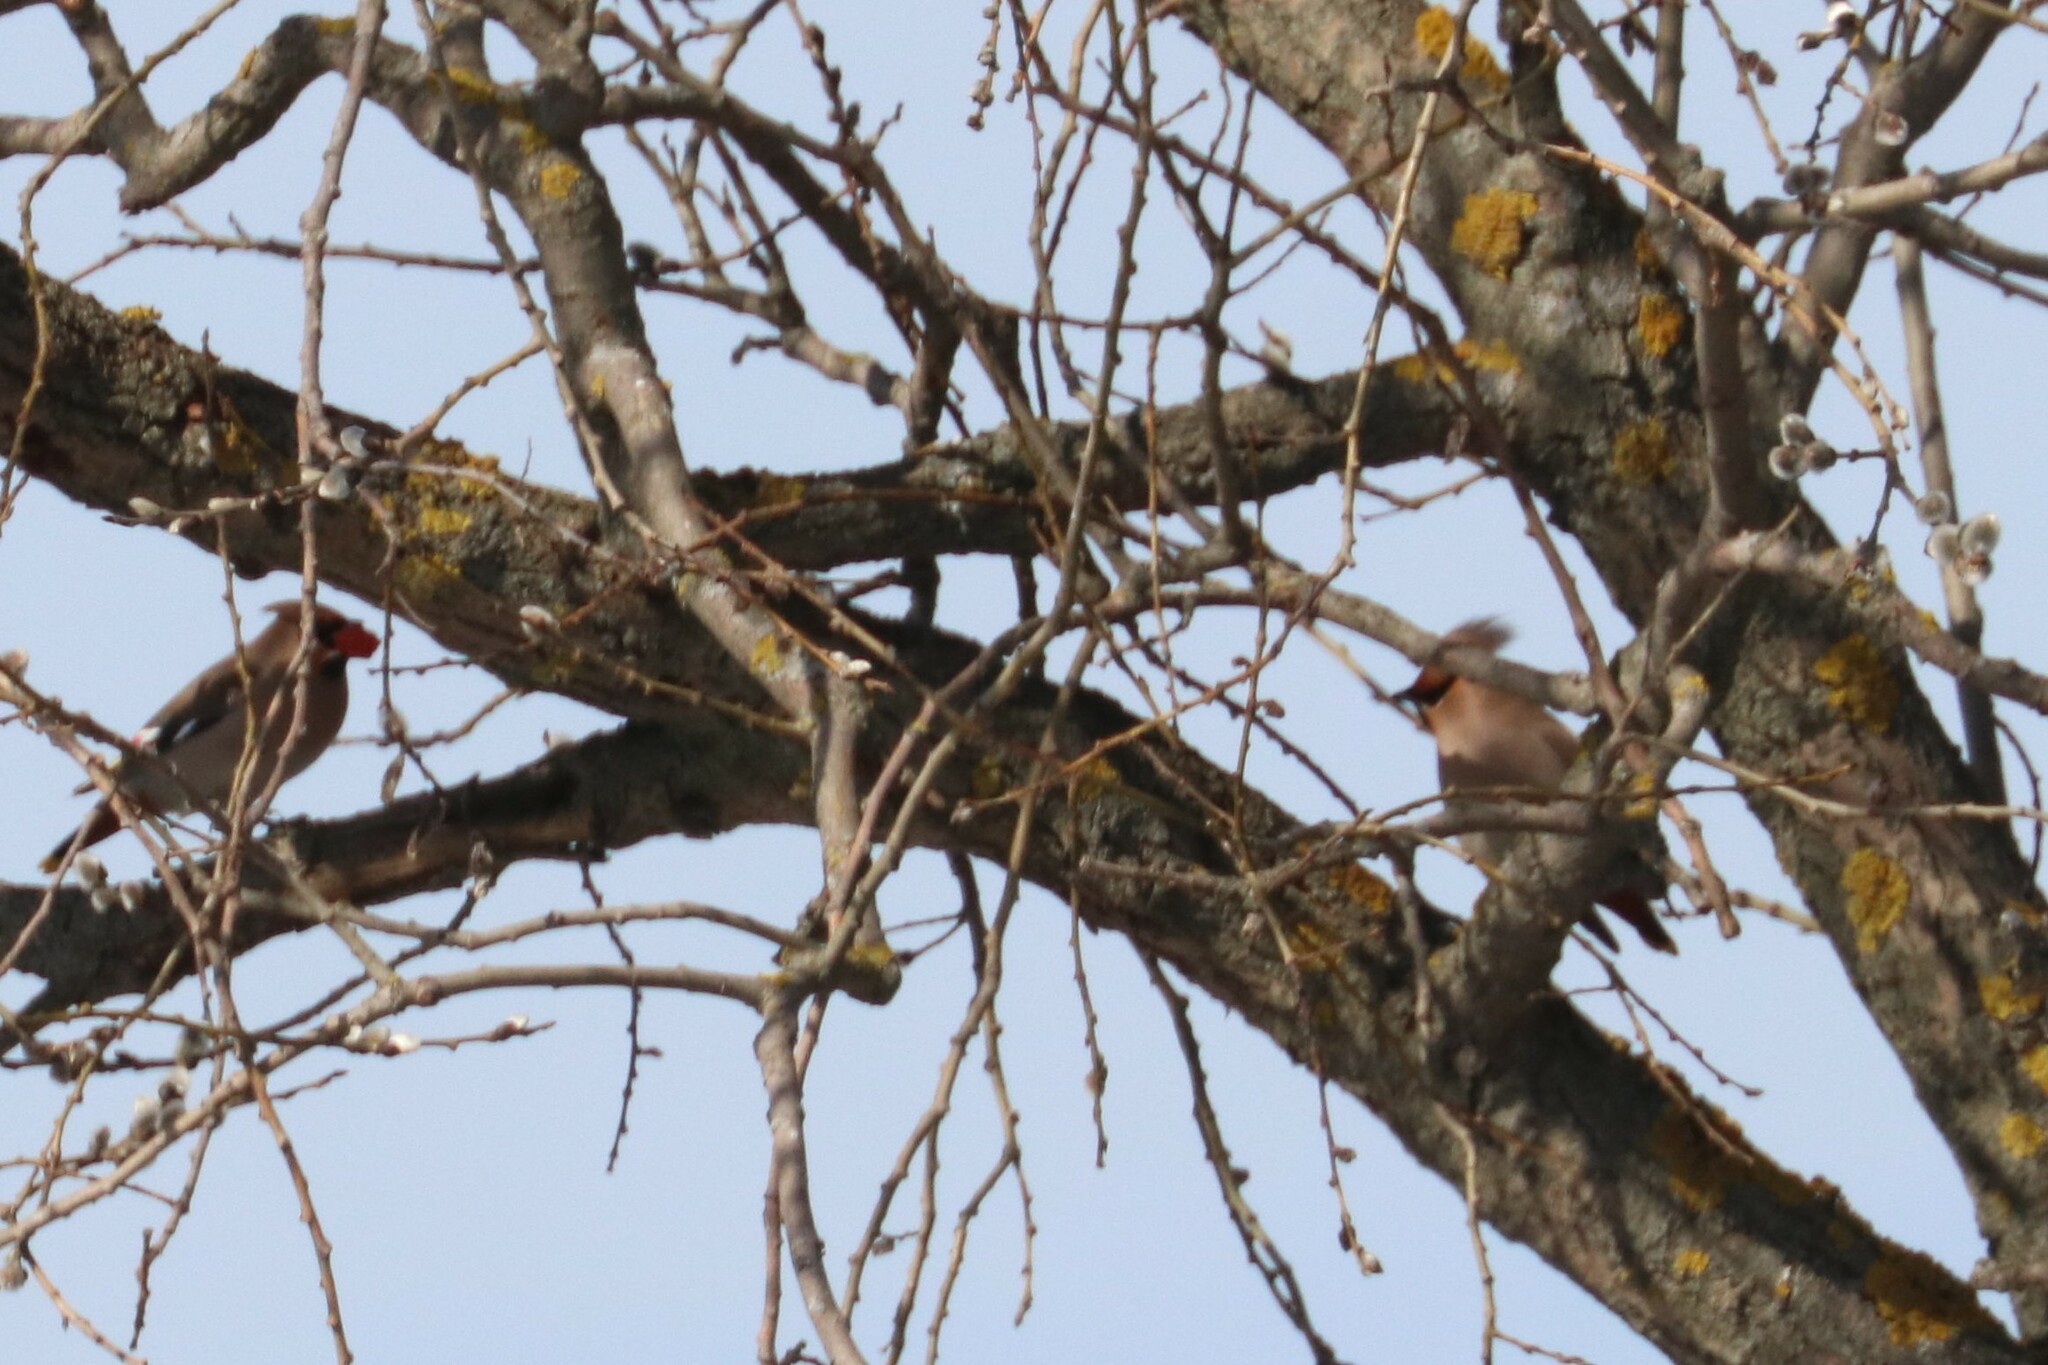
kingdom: Animalia
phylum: Chordata
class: Aves
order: Passeriformes
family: Bombycillidae
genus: Bombycilla
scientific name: Bombycilla garrulus
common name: Bohemian waxwing
